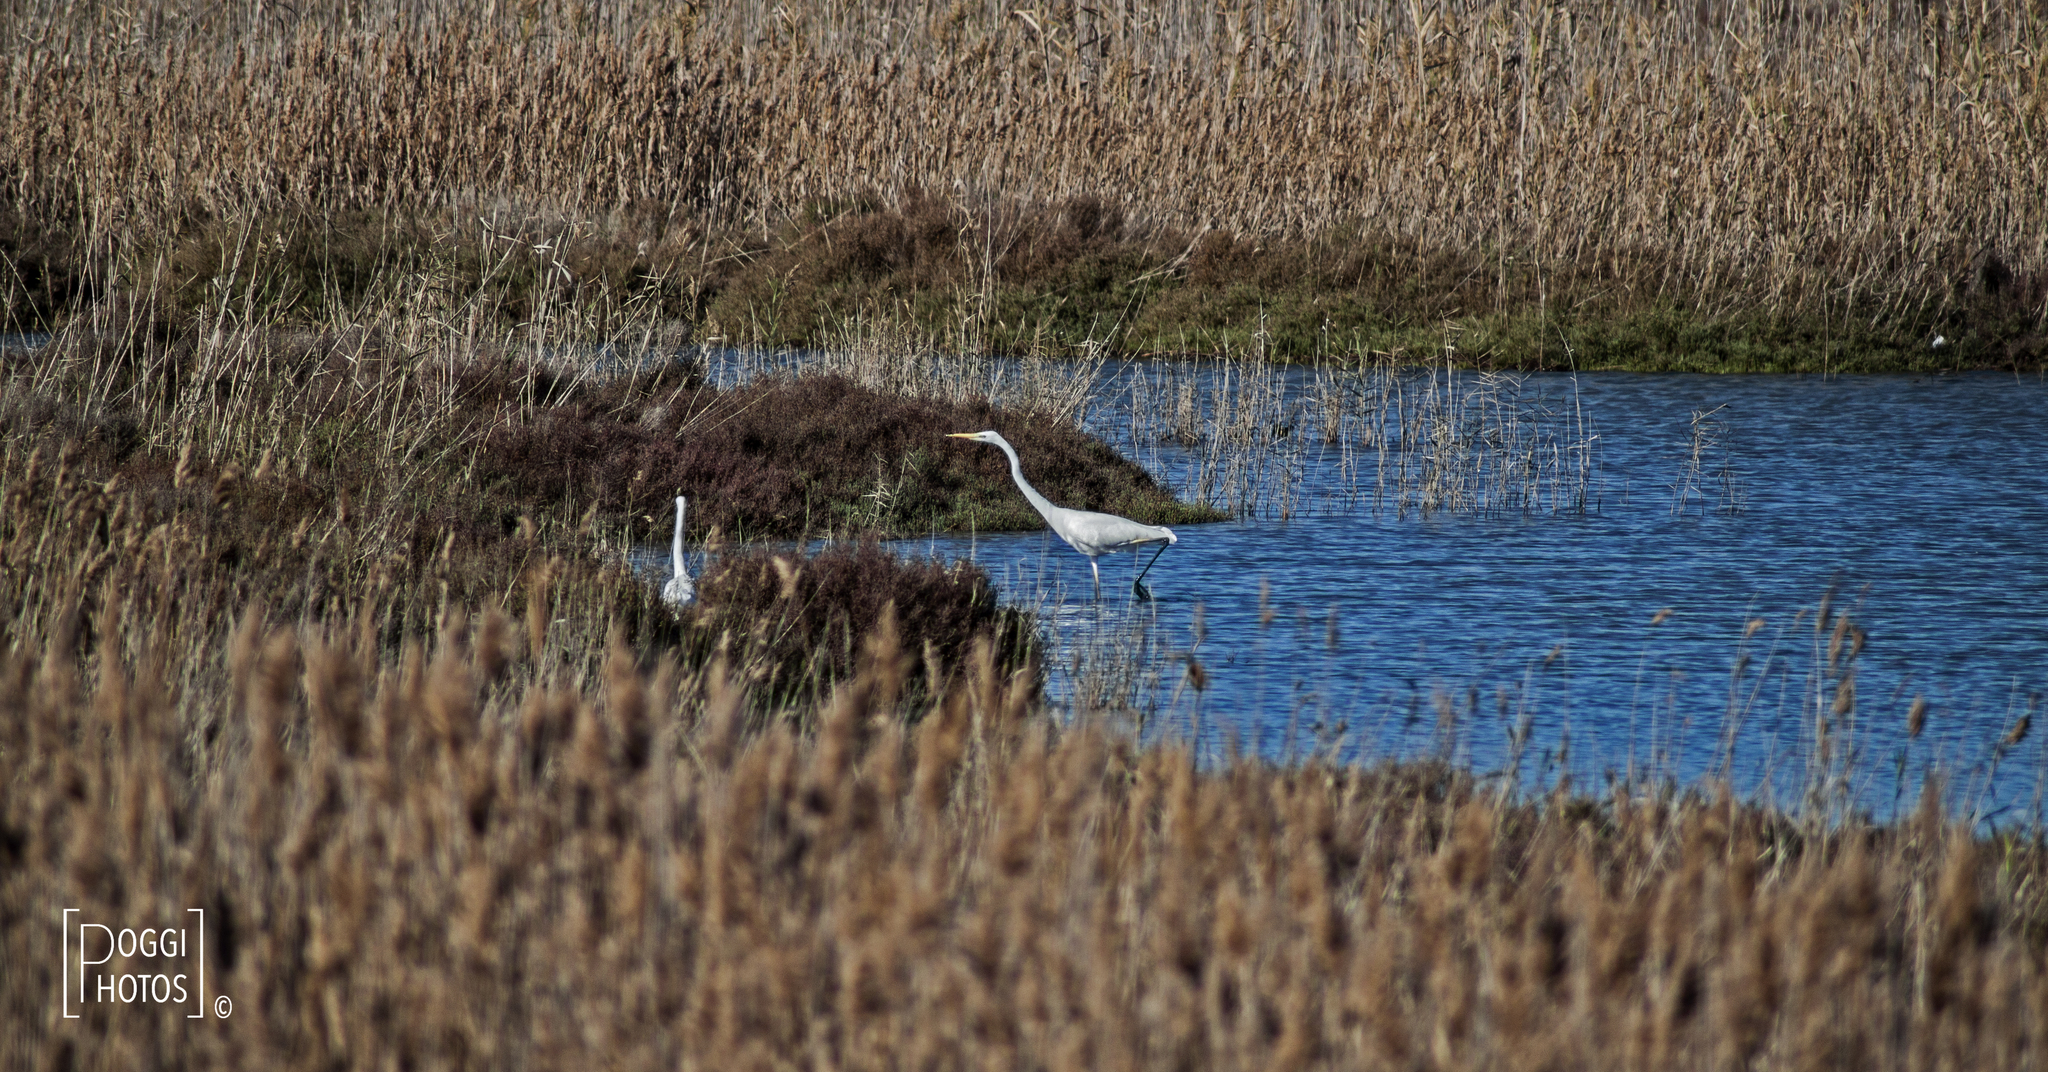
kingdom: Animalia
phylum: Chordata
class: Aves
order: Pelecaniformes
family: Ardeidae
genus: Ardea
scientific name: Ardea alba
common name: Great egret
